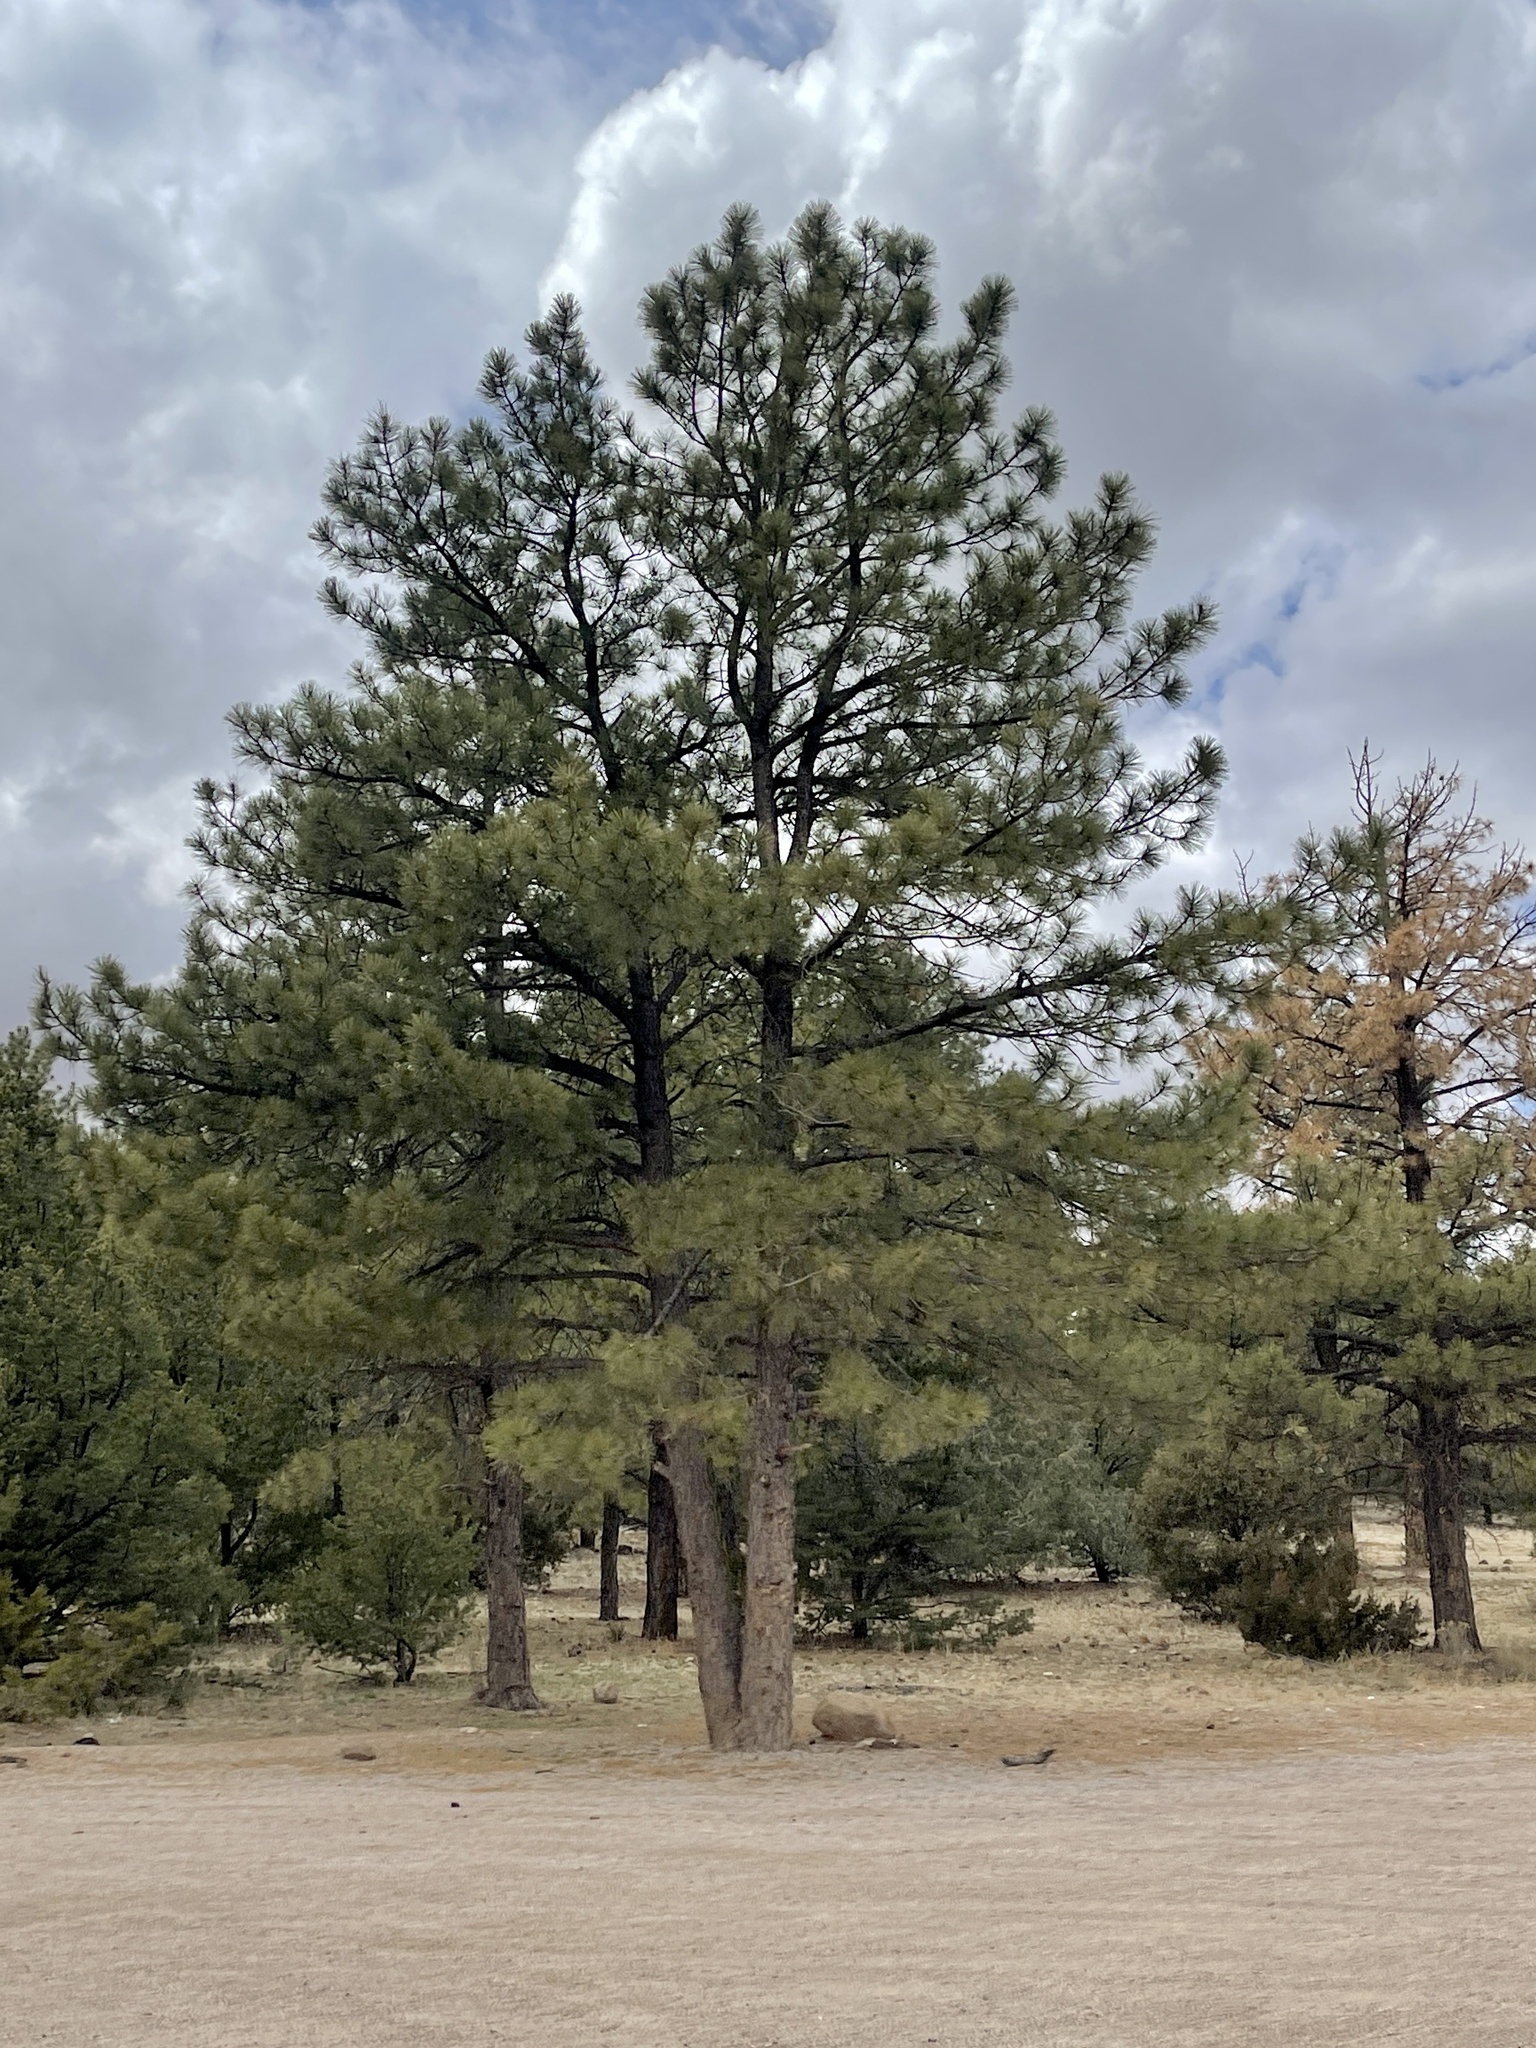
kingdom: Plantae
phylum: Tracheophyta
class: Pinopsida
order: Pinales
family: Pinaceae
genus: Pinus
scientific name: Pinus ponderosa
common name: Western yellow-pine
